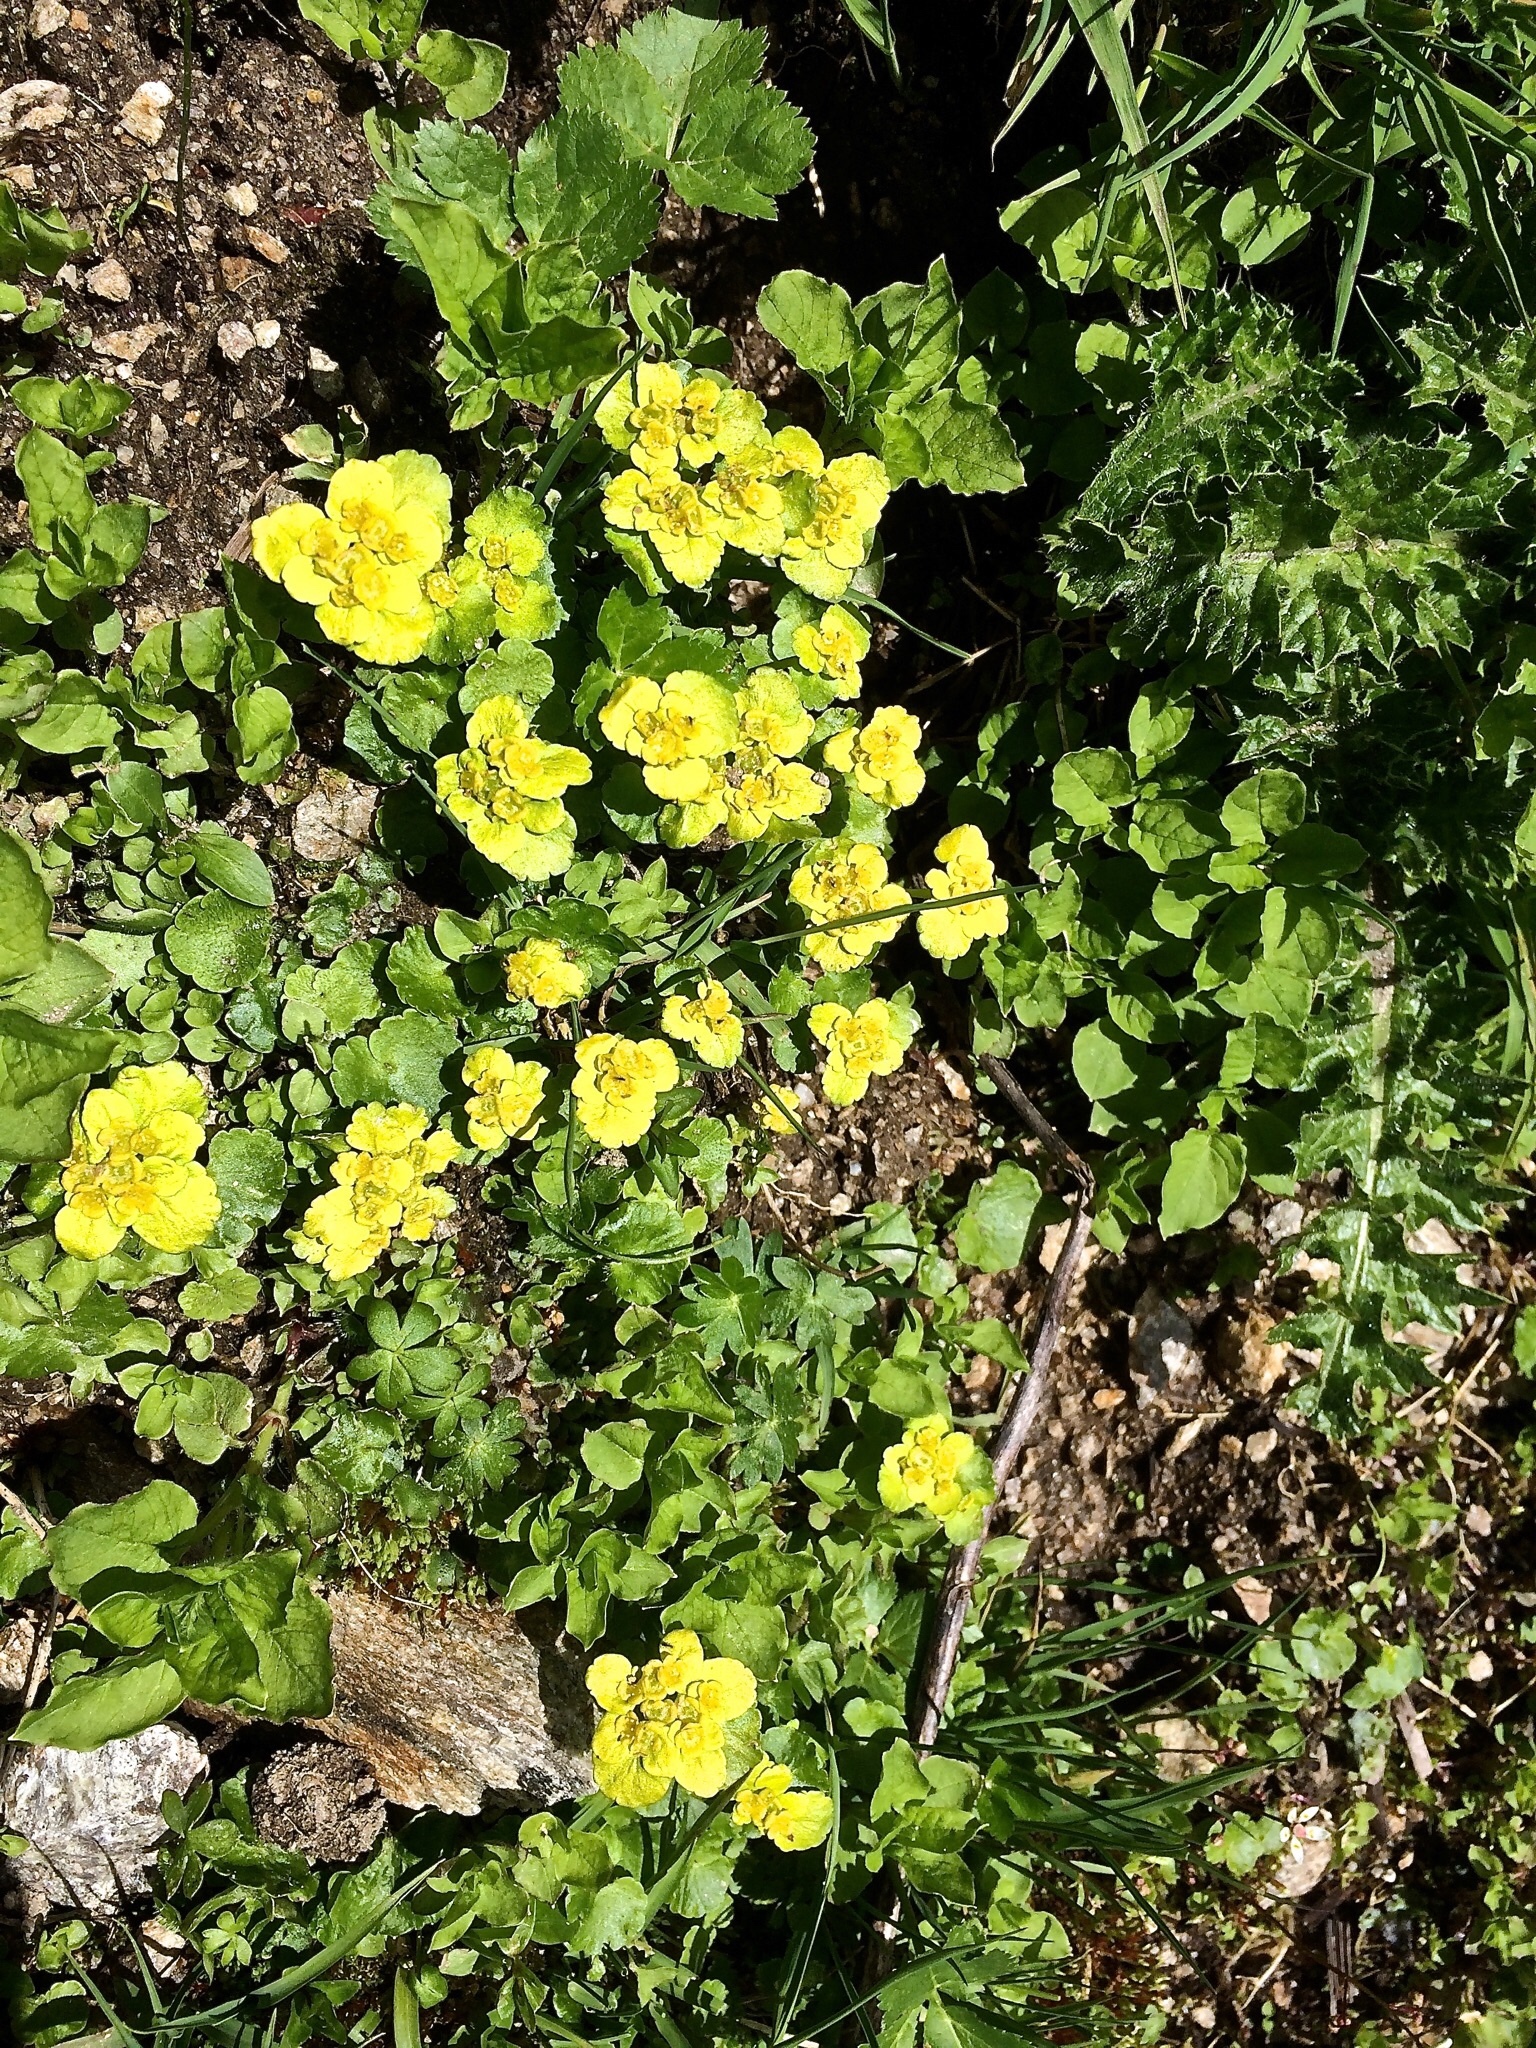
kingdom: Plantae
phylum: Tracheophyta
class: Magnoliopsida
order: Saxifragales
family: Saxifragaceae
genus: Chrysosplenium
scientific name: Chrysosplenium alternifolium
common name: Alternate-leaved golden-saxifrage
